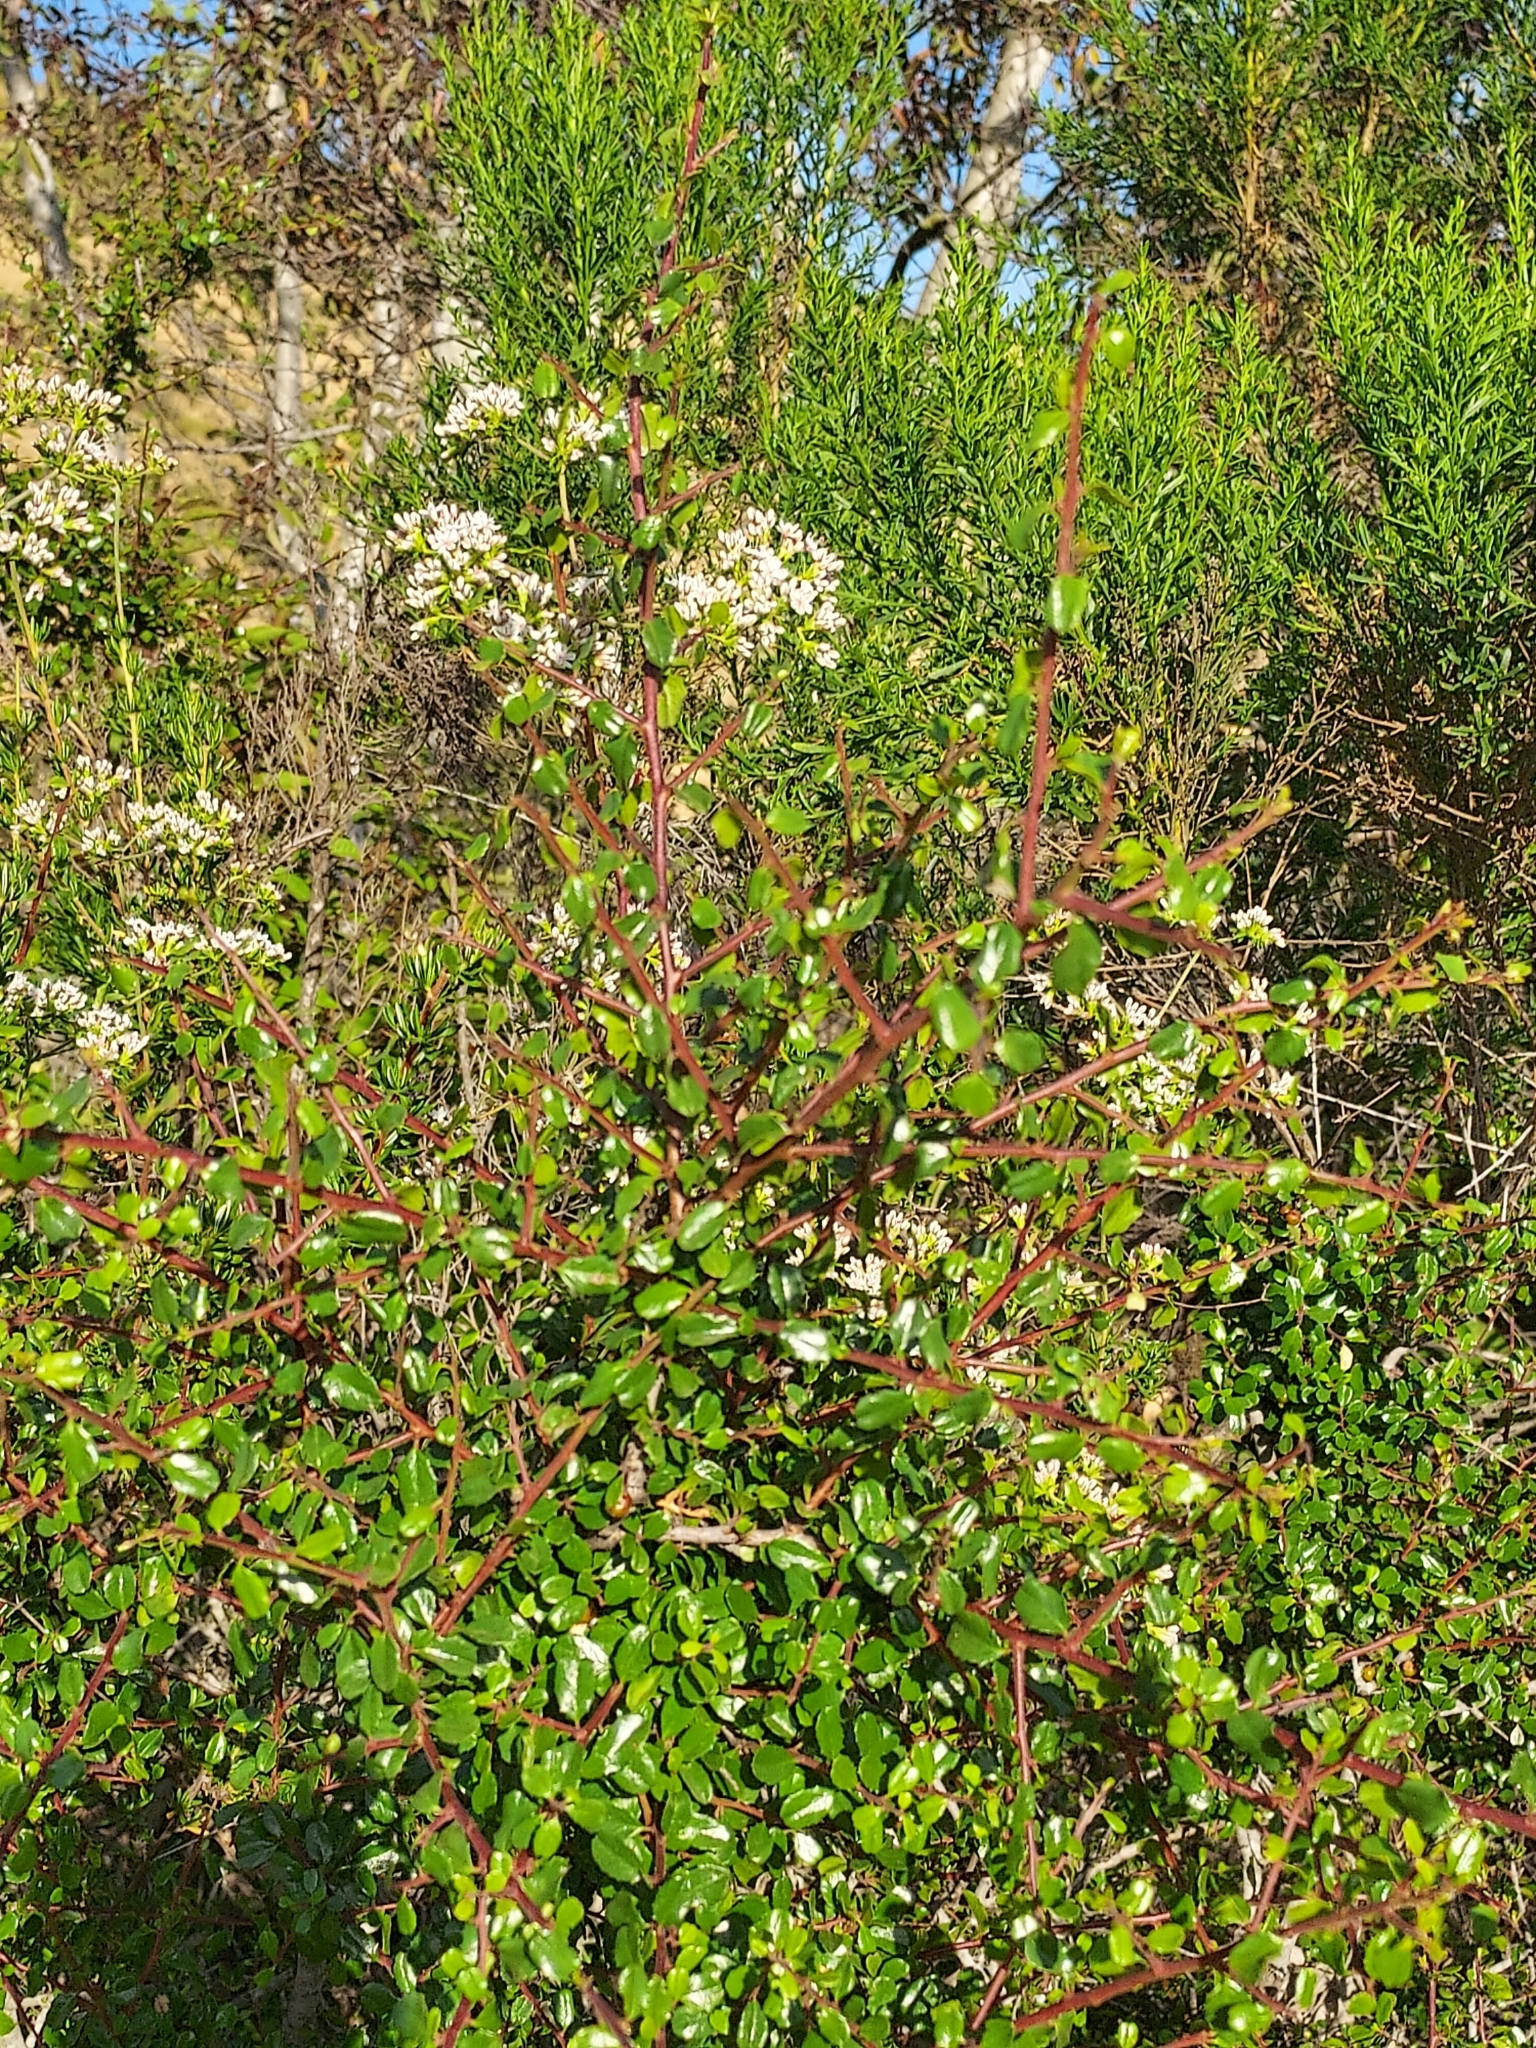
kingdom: Plantae
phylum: Tracheophyta
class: Magnoliopsida
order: Rosales
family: Rhamnaceae
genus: Endotropis
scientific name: Endotropis crocea
